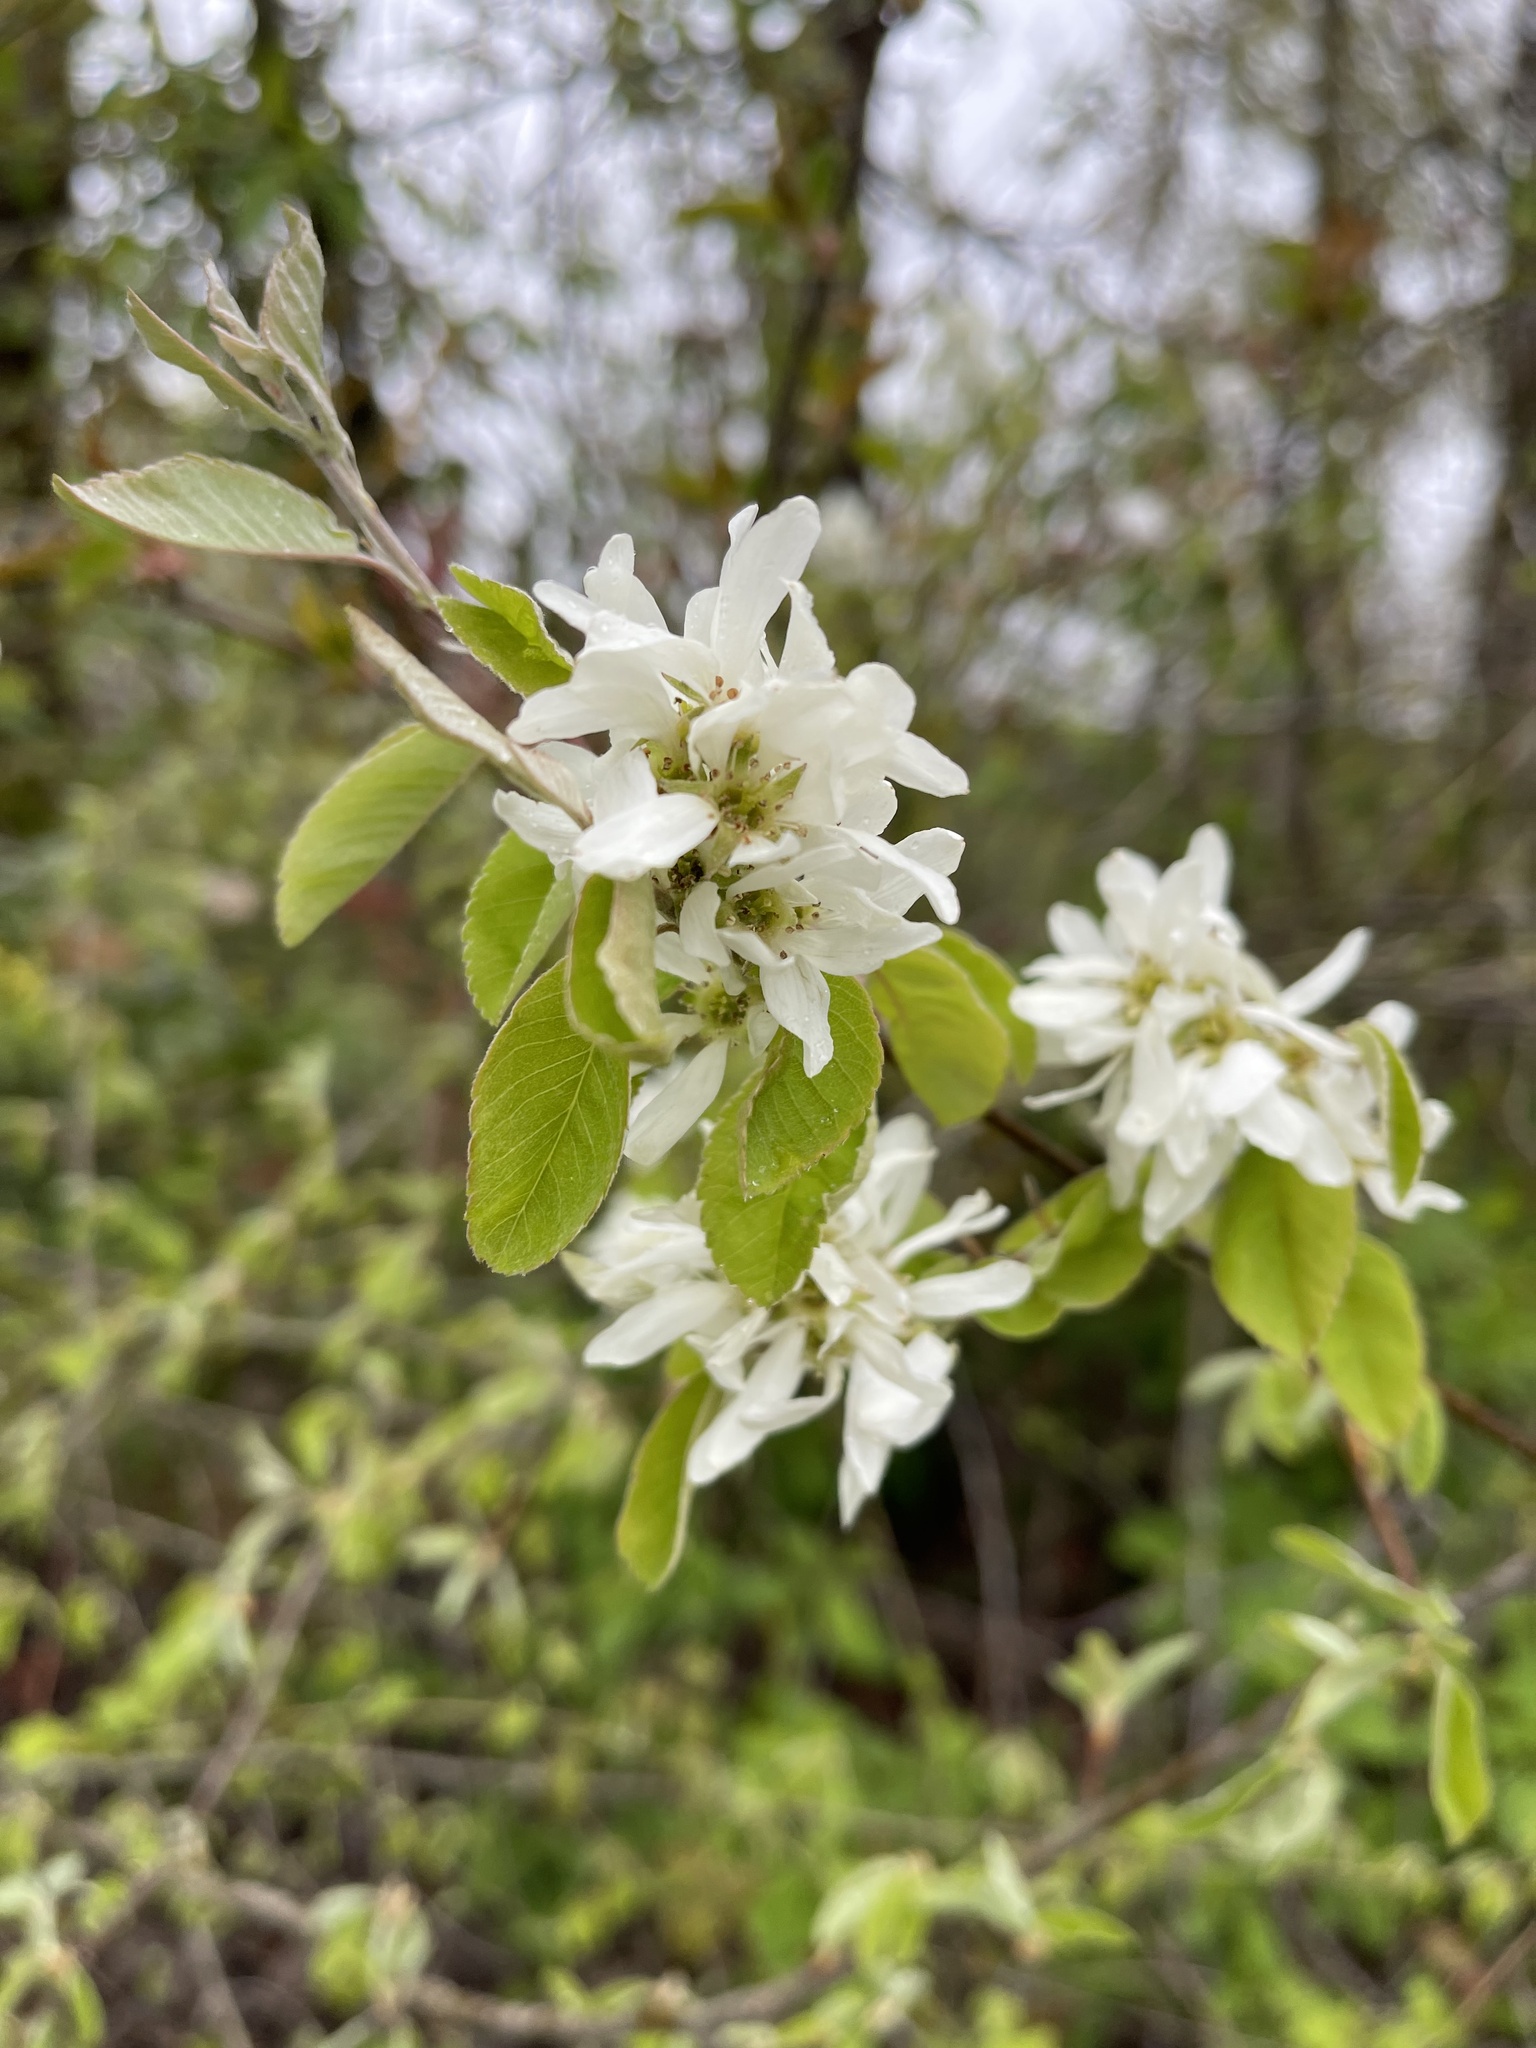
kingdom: Plantae
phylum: Tracheophyta
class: Magnoliopsida
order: Rosales
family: Rosaceae
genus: Amelanchier
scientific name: Amelanchier alnifolia
